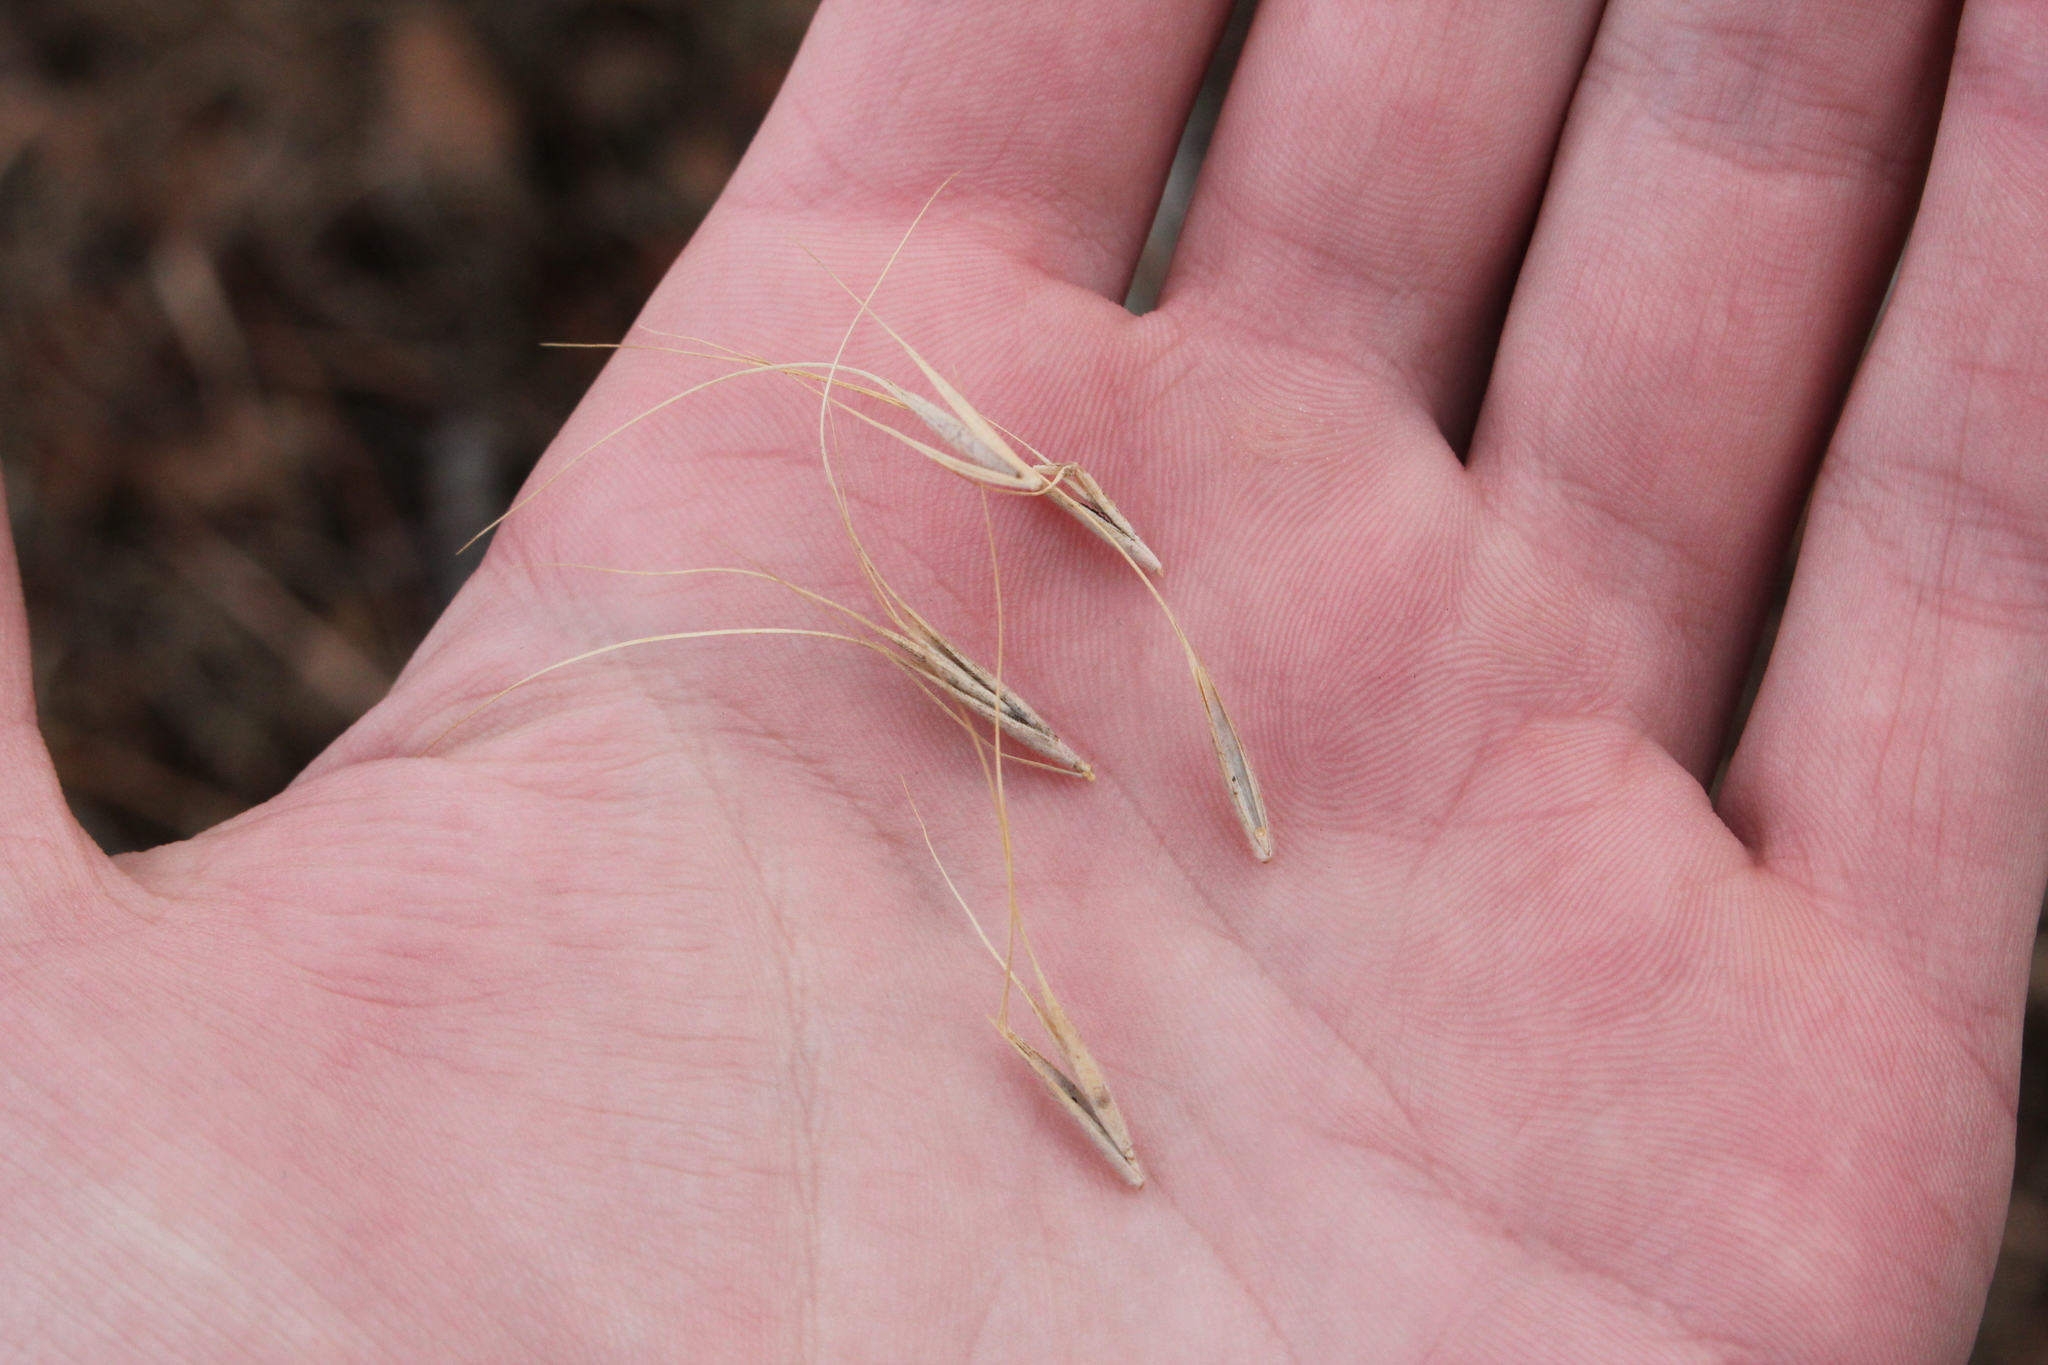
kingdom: Plantae
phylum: Tracheophyta
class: Liliopsida
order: Poales
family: Poaceae
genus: Elymus
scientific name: Elymus canadensis
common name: Canada wild rye
